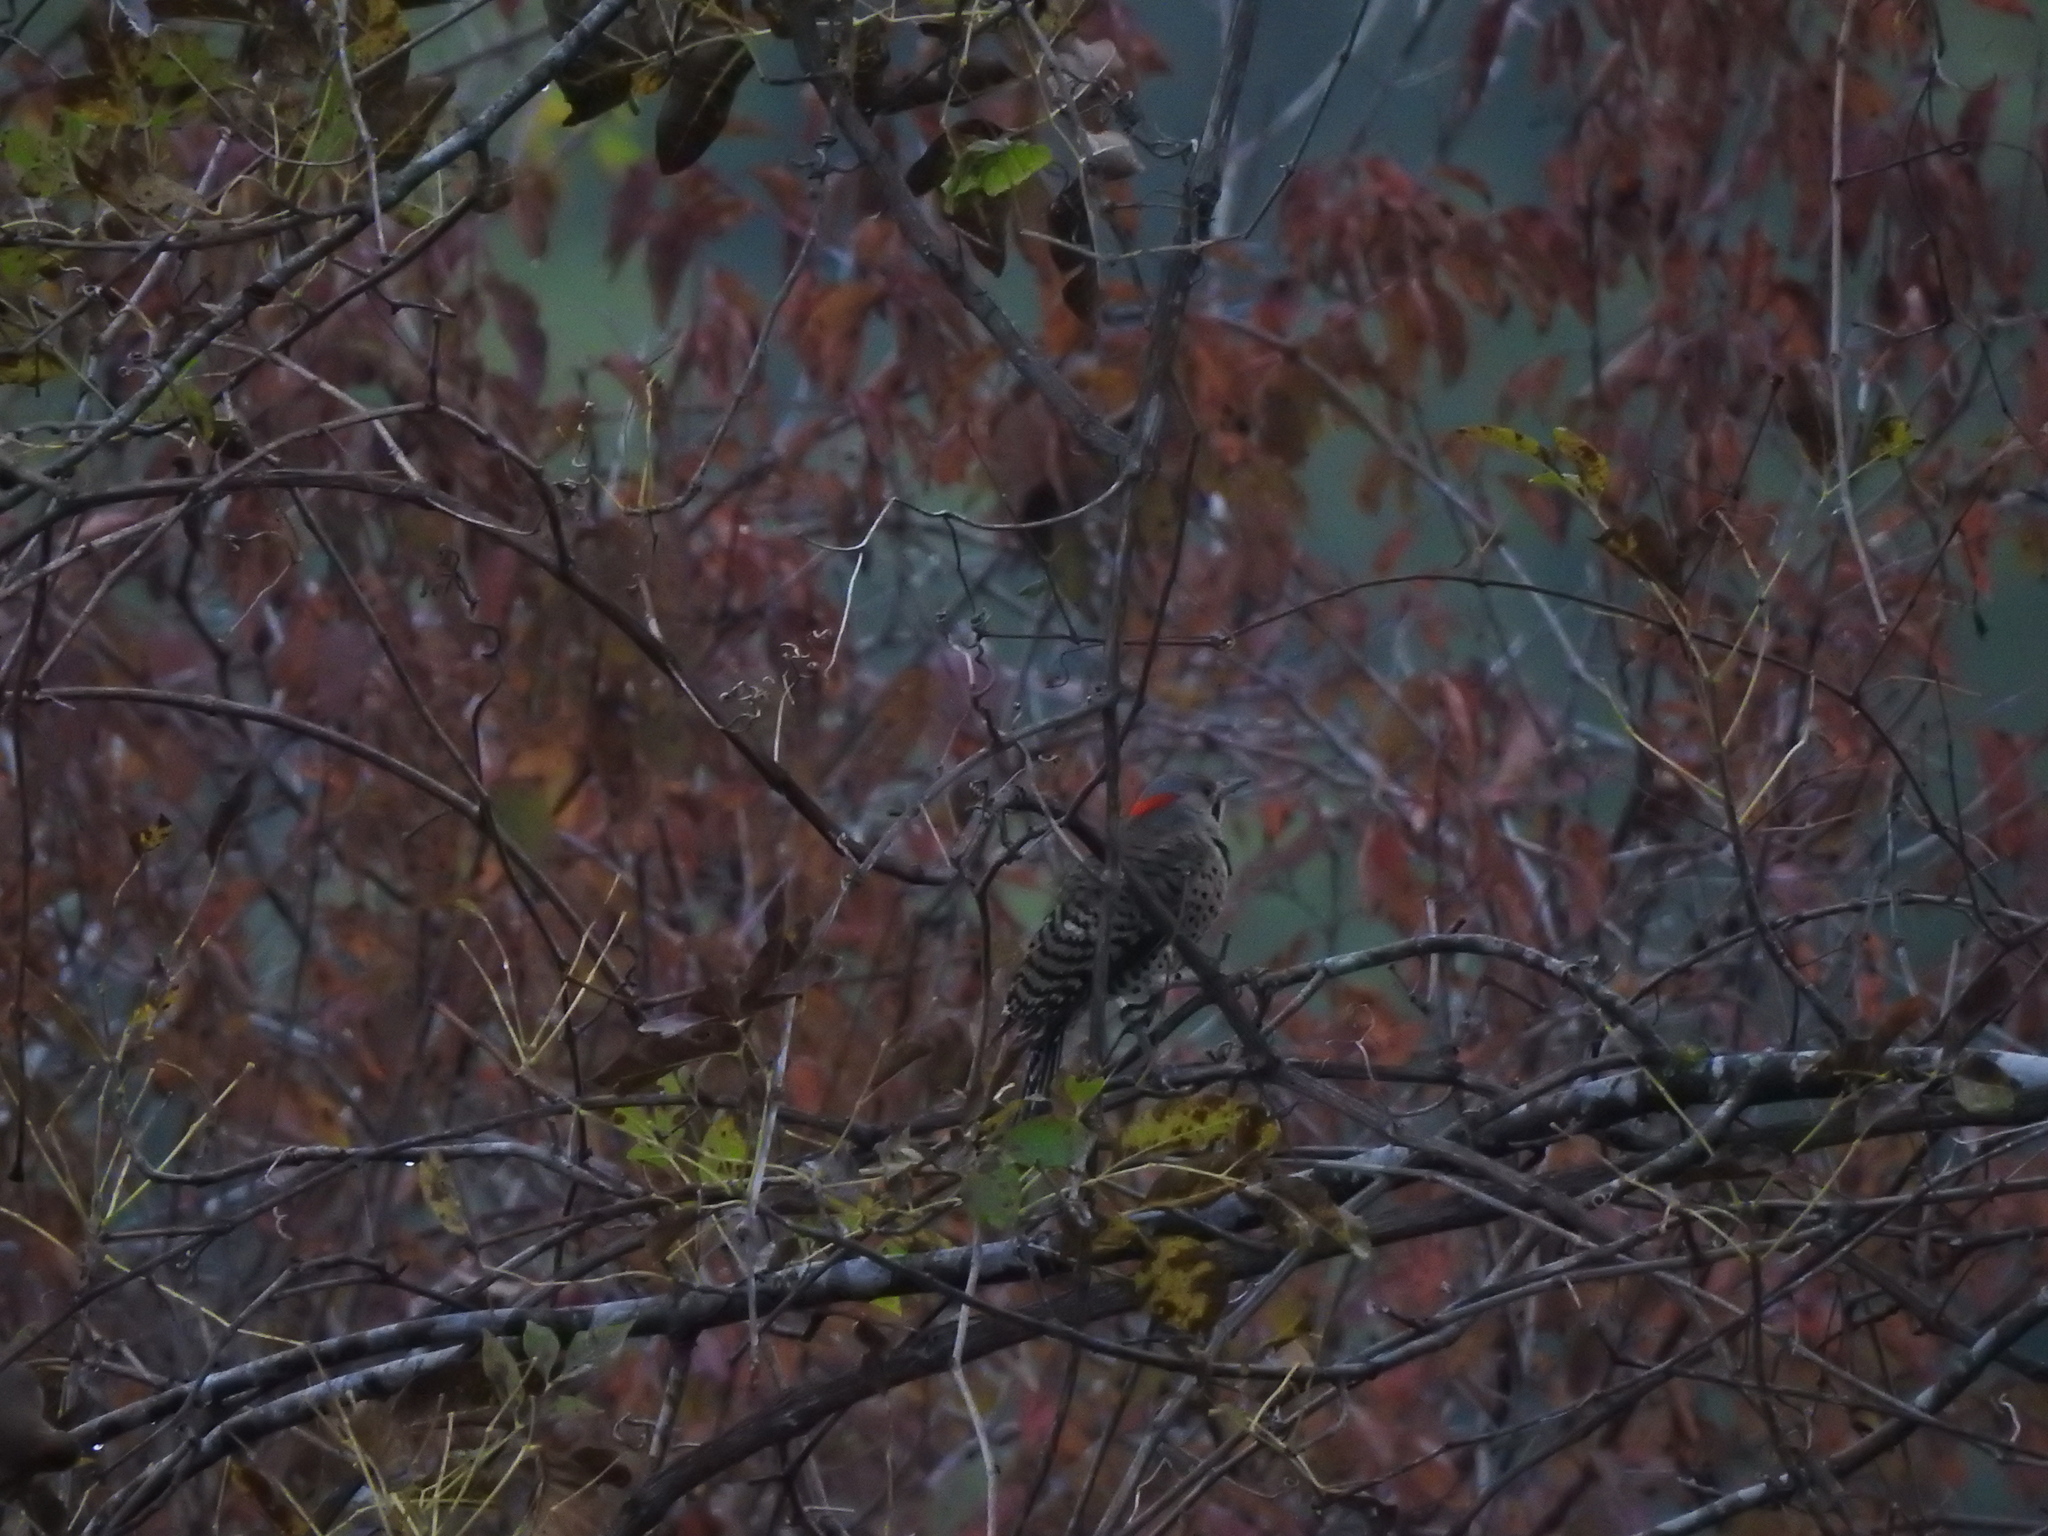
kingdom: Animalia
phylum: Chordata
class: Aves
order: Piciformes
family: Picidae
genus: Colaptes
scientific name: Colaptes auratus
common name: Northern flicker
